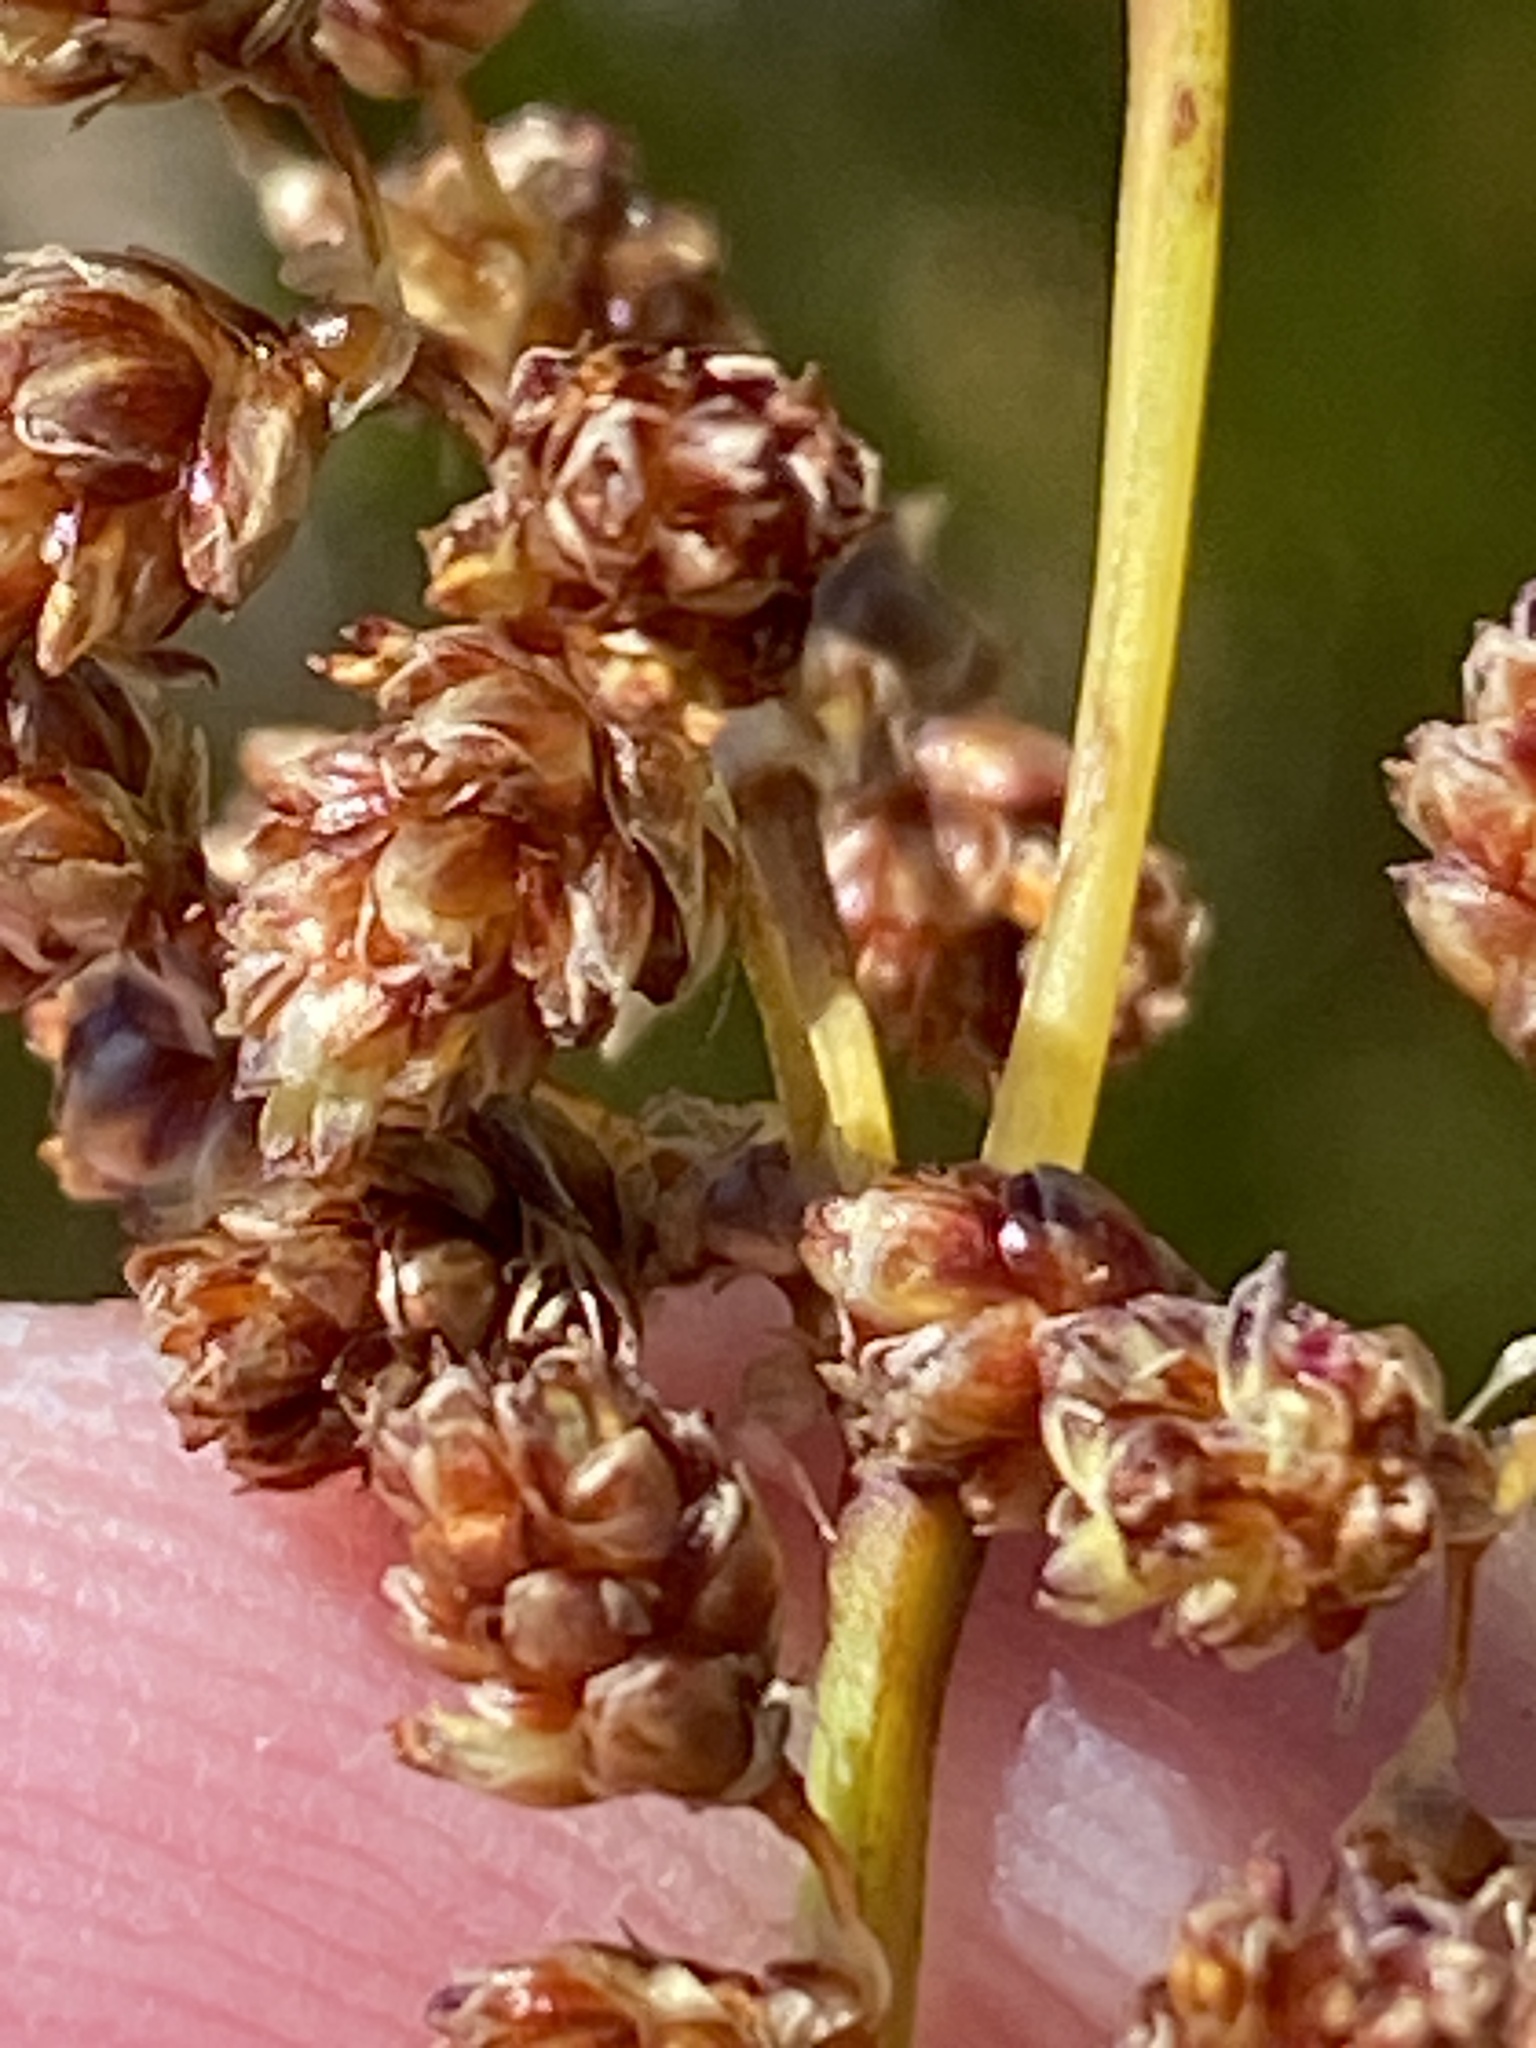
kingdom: Plantae
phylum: Tracheophyta
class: Liliopsida
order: Poales
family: Restionaceae
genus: Cannomois
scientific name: Cannomois scirpoides
